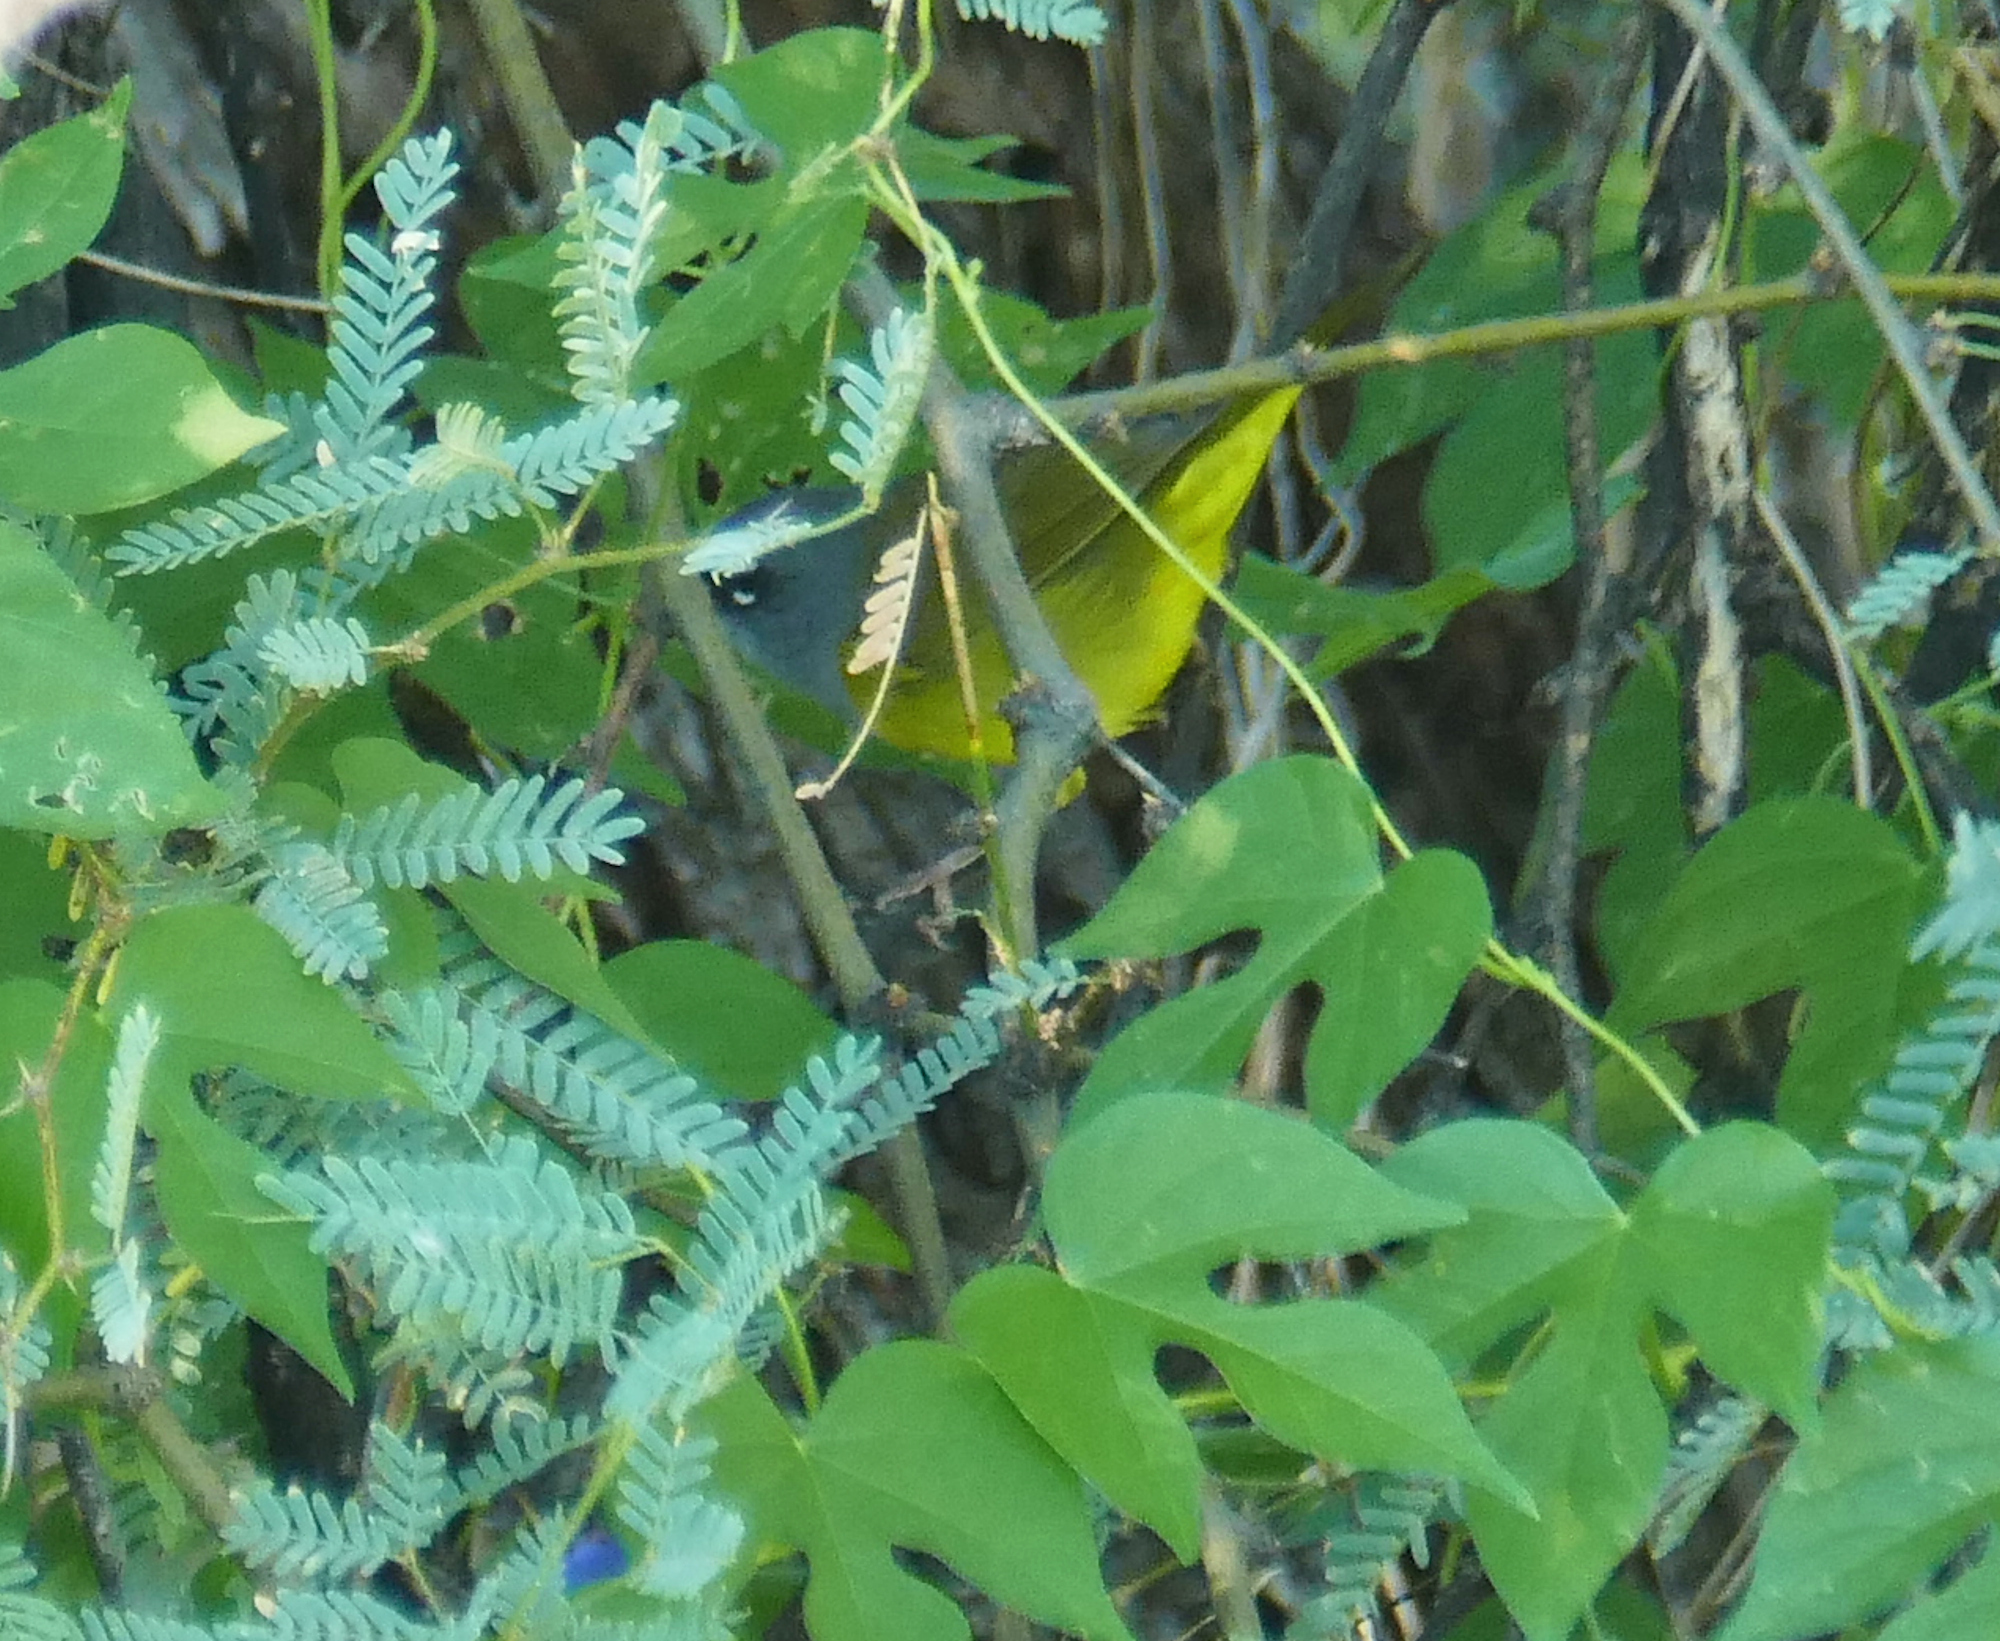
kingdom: Animalia
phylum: Chordata
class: Aves
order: Passeriformes
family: Parulidae
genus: Geothlypis
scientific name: Geothlypis tolmiei
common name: Macgillivray's warbler
